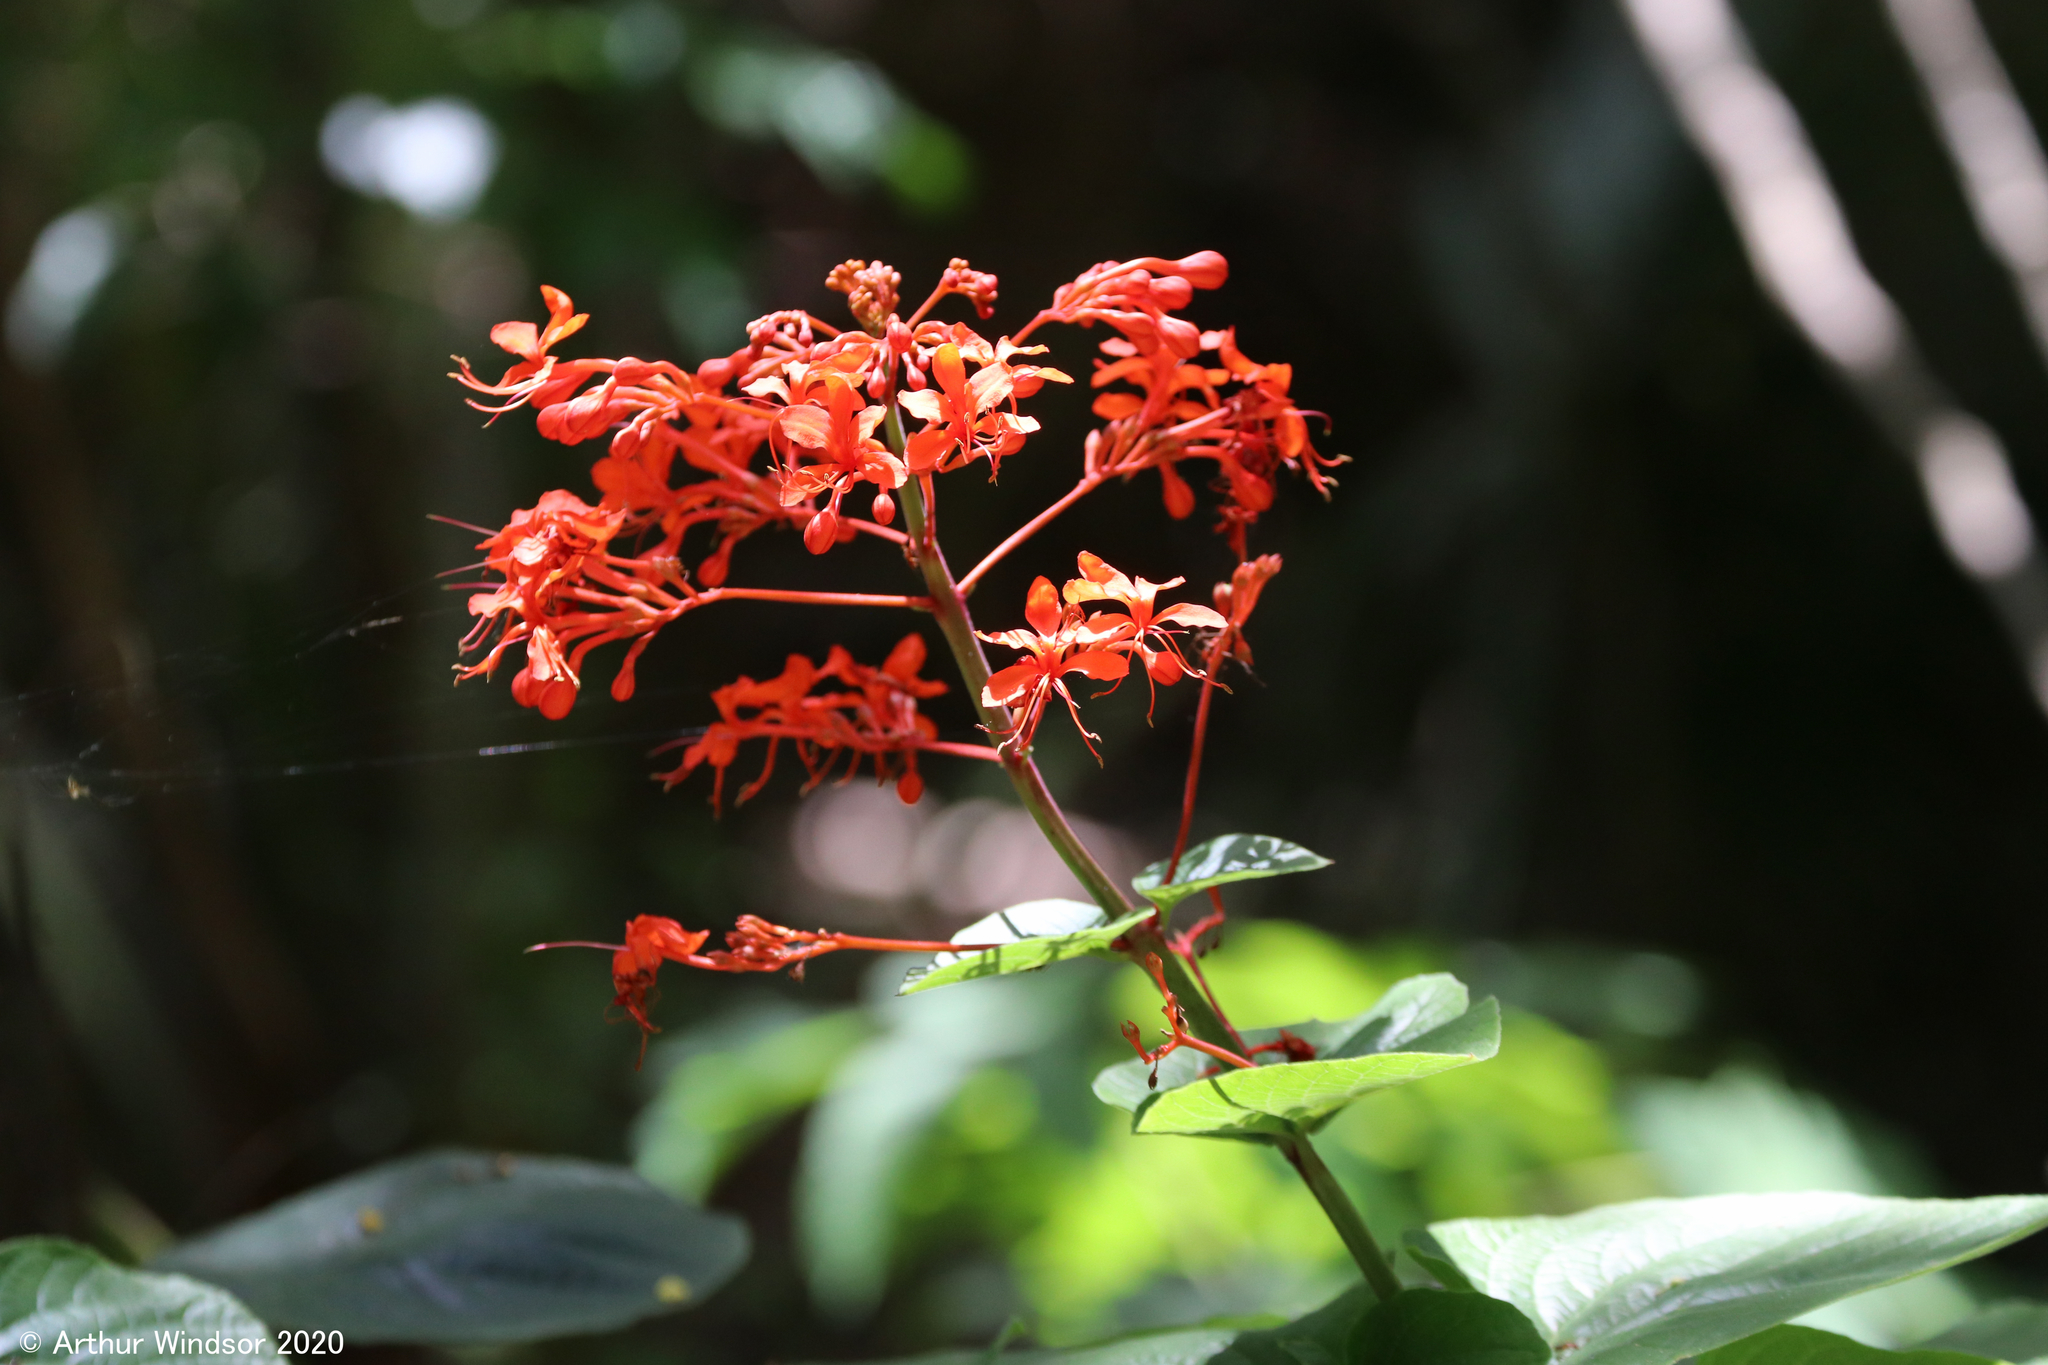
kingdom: Plantae
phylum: Tracheophyta
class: Magnoliopsida
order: Lamiales
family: Lamiaceae
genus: Clerodendrum
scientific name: Clerodendrum speciosissimum
